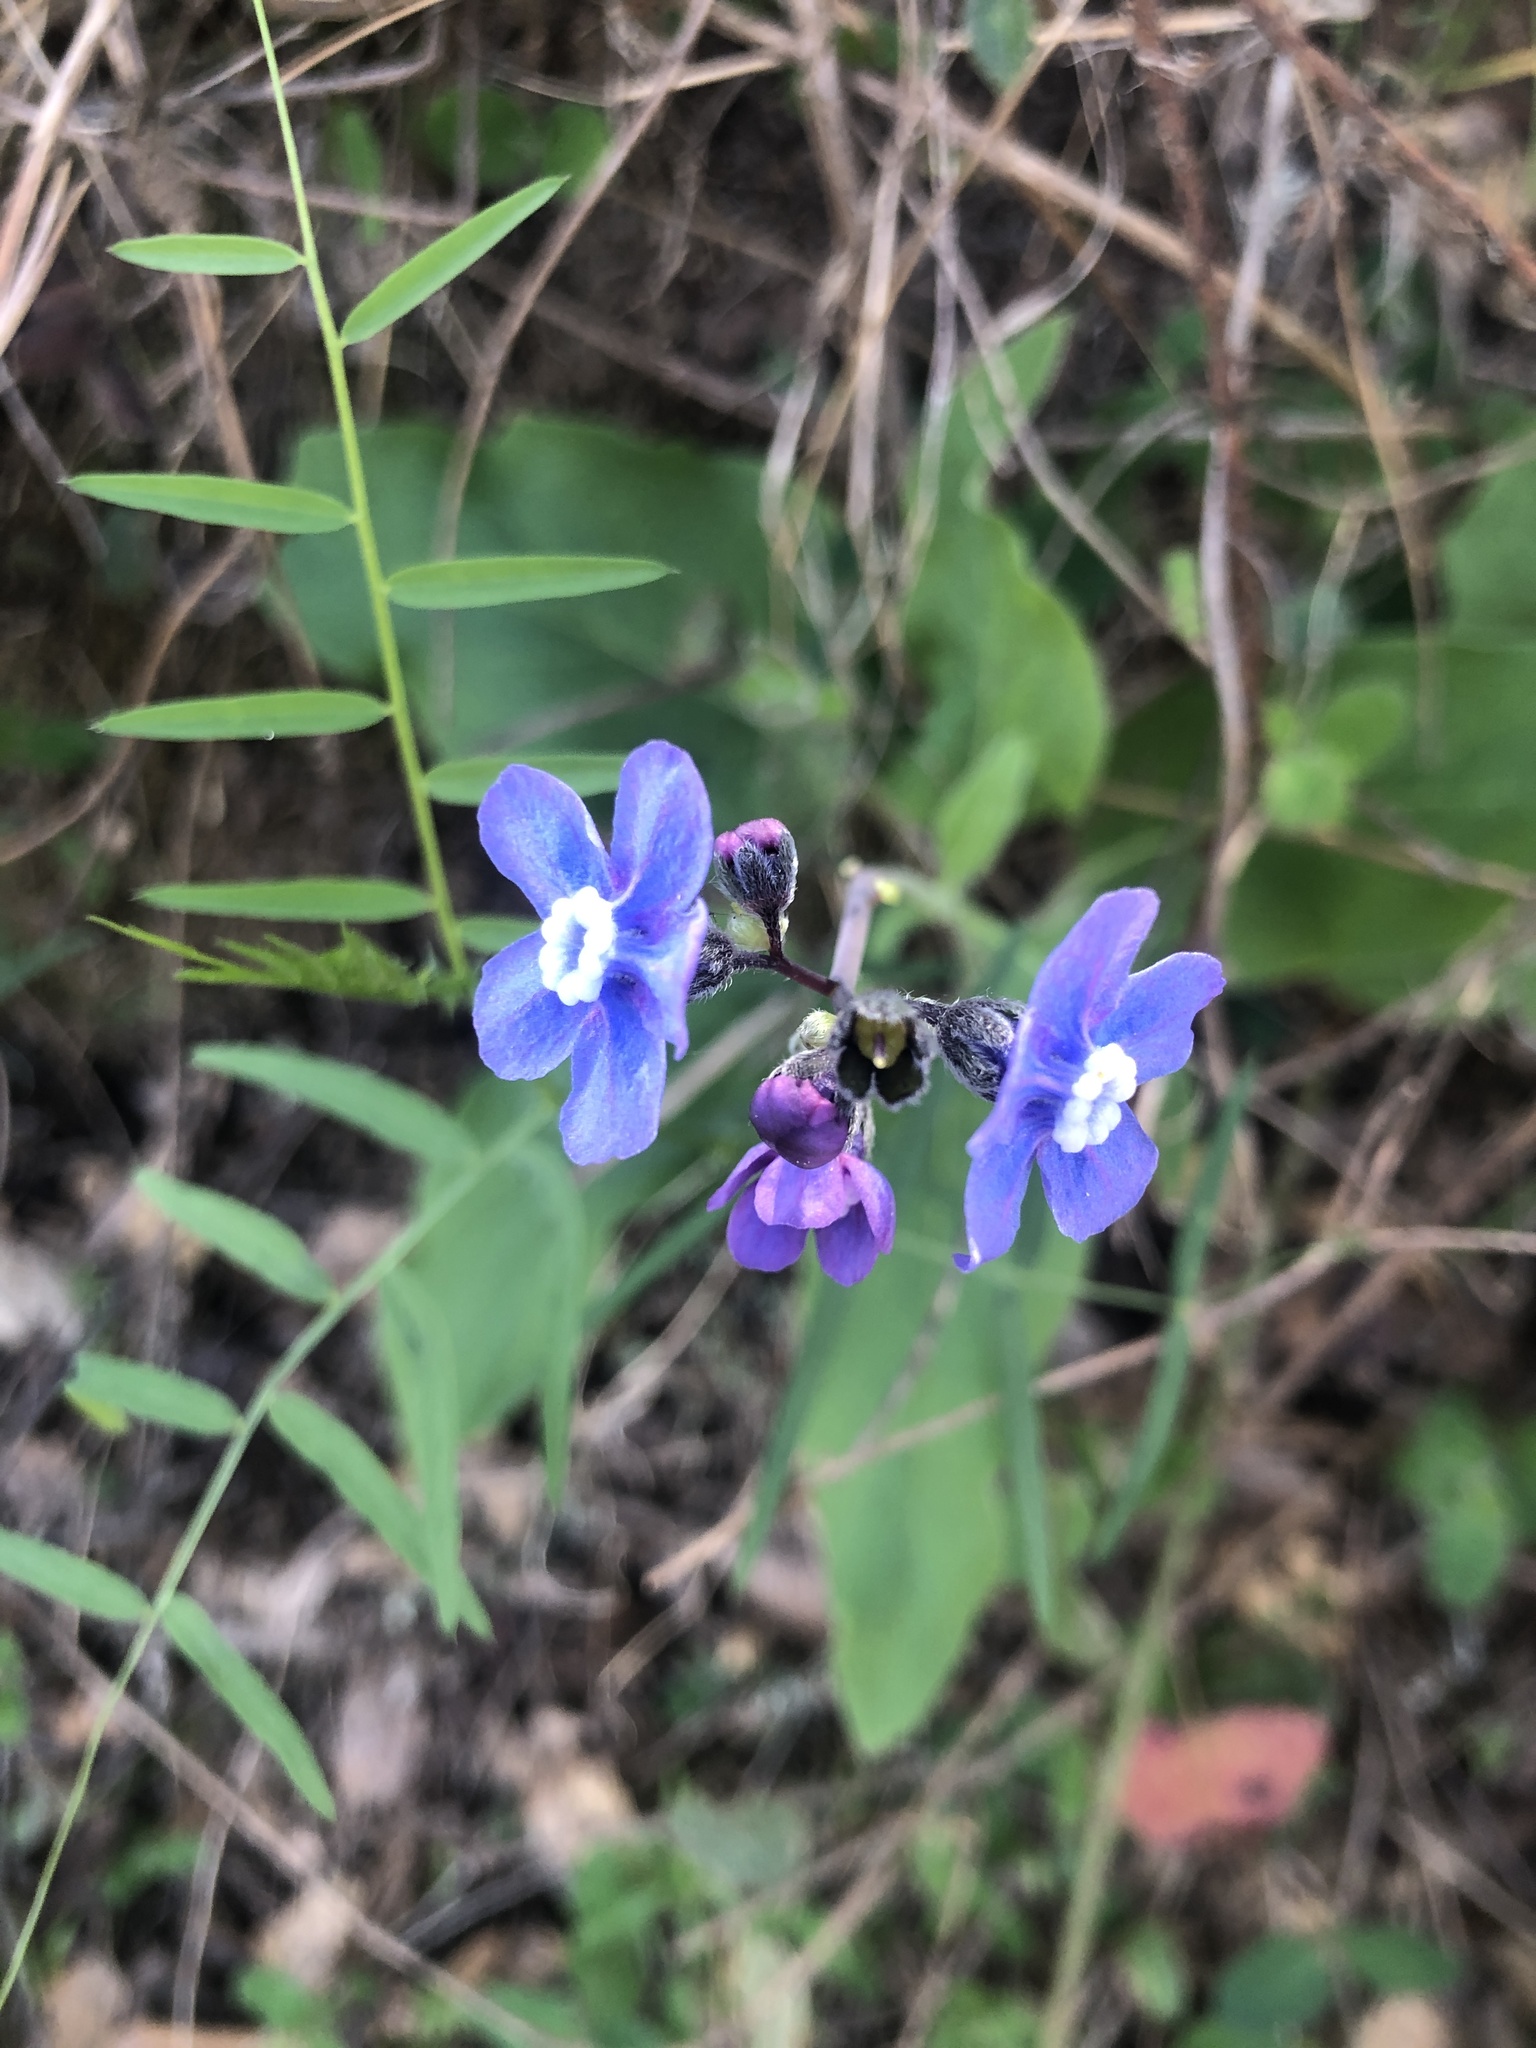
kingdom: Plantae
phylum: Tracheophyta
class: Magnoliopsida
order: Boraginales
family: Boraginaceae
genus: Adelinia
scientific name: Adelinia grande
